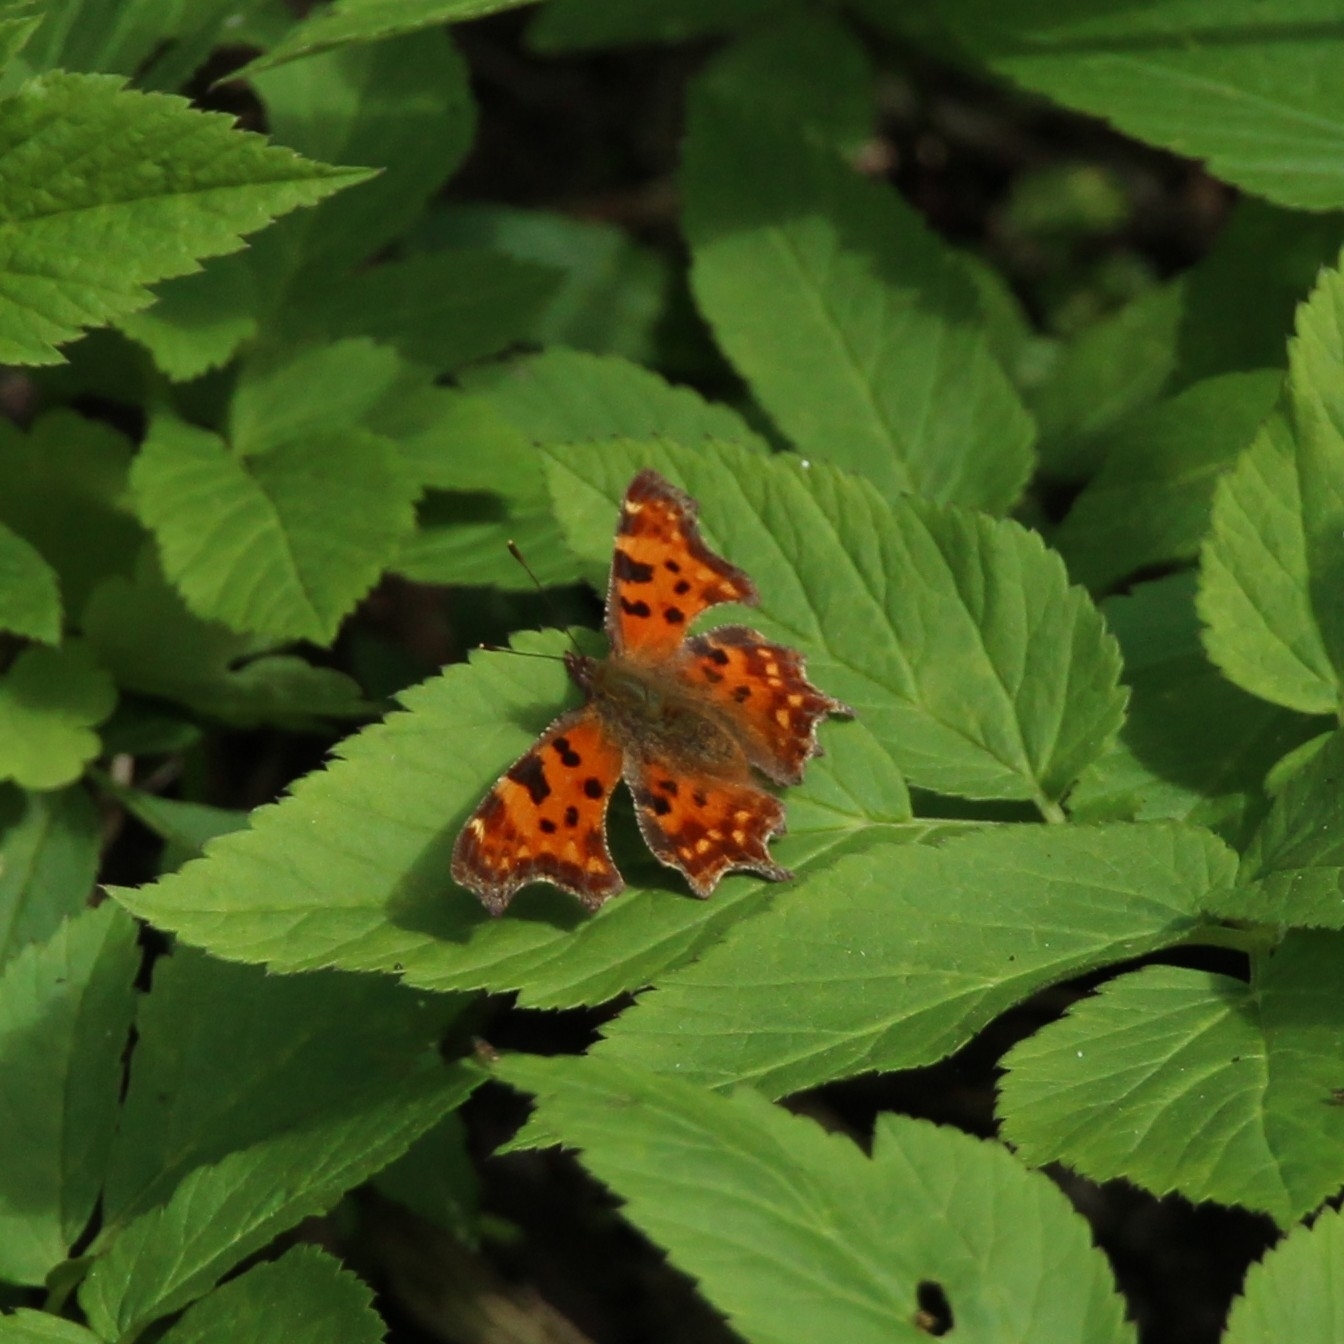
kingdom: Animalia
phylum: Arthropoda
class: Insecta
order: Lepidoptera
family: Nymphalidae
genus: Polygonia
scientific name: Polygonia c-album
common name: Comma
